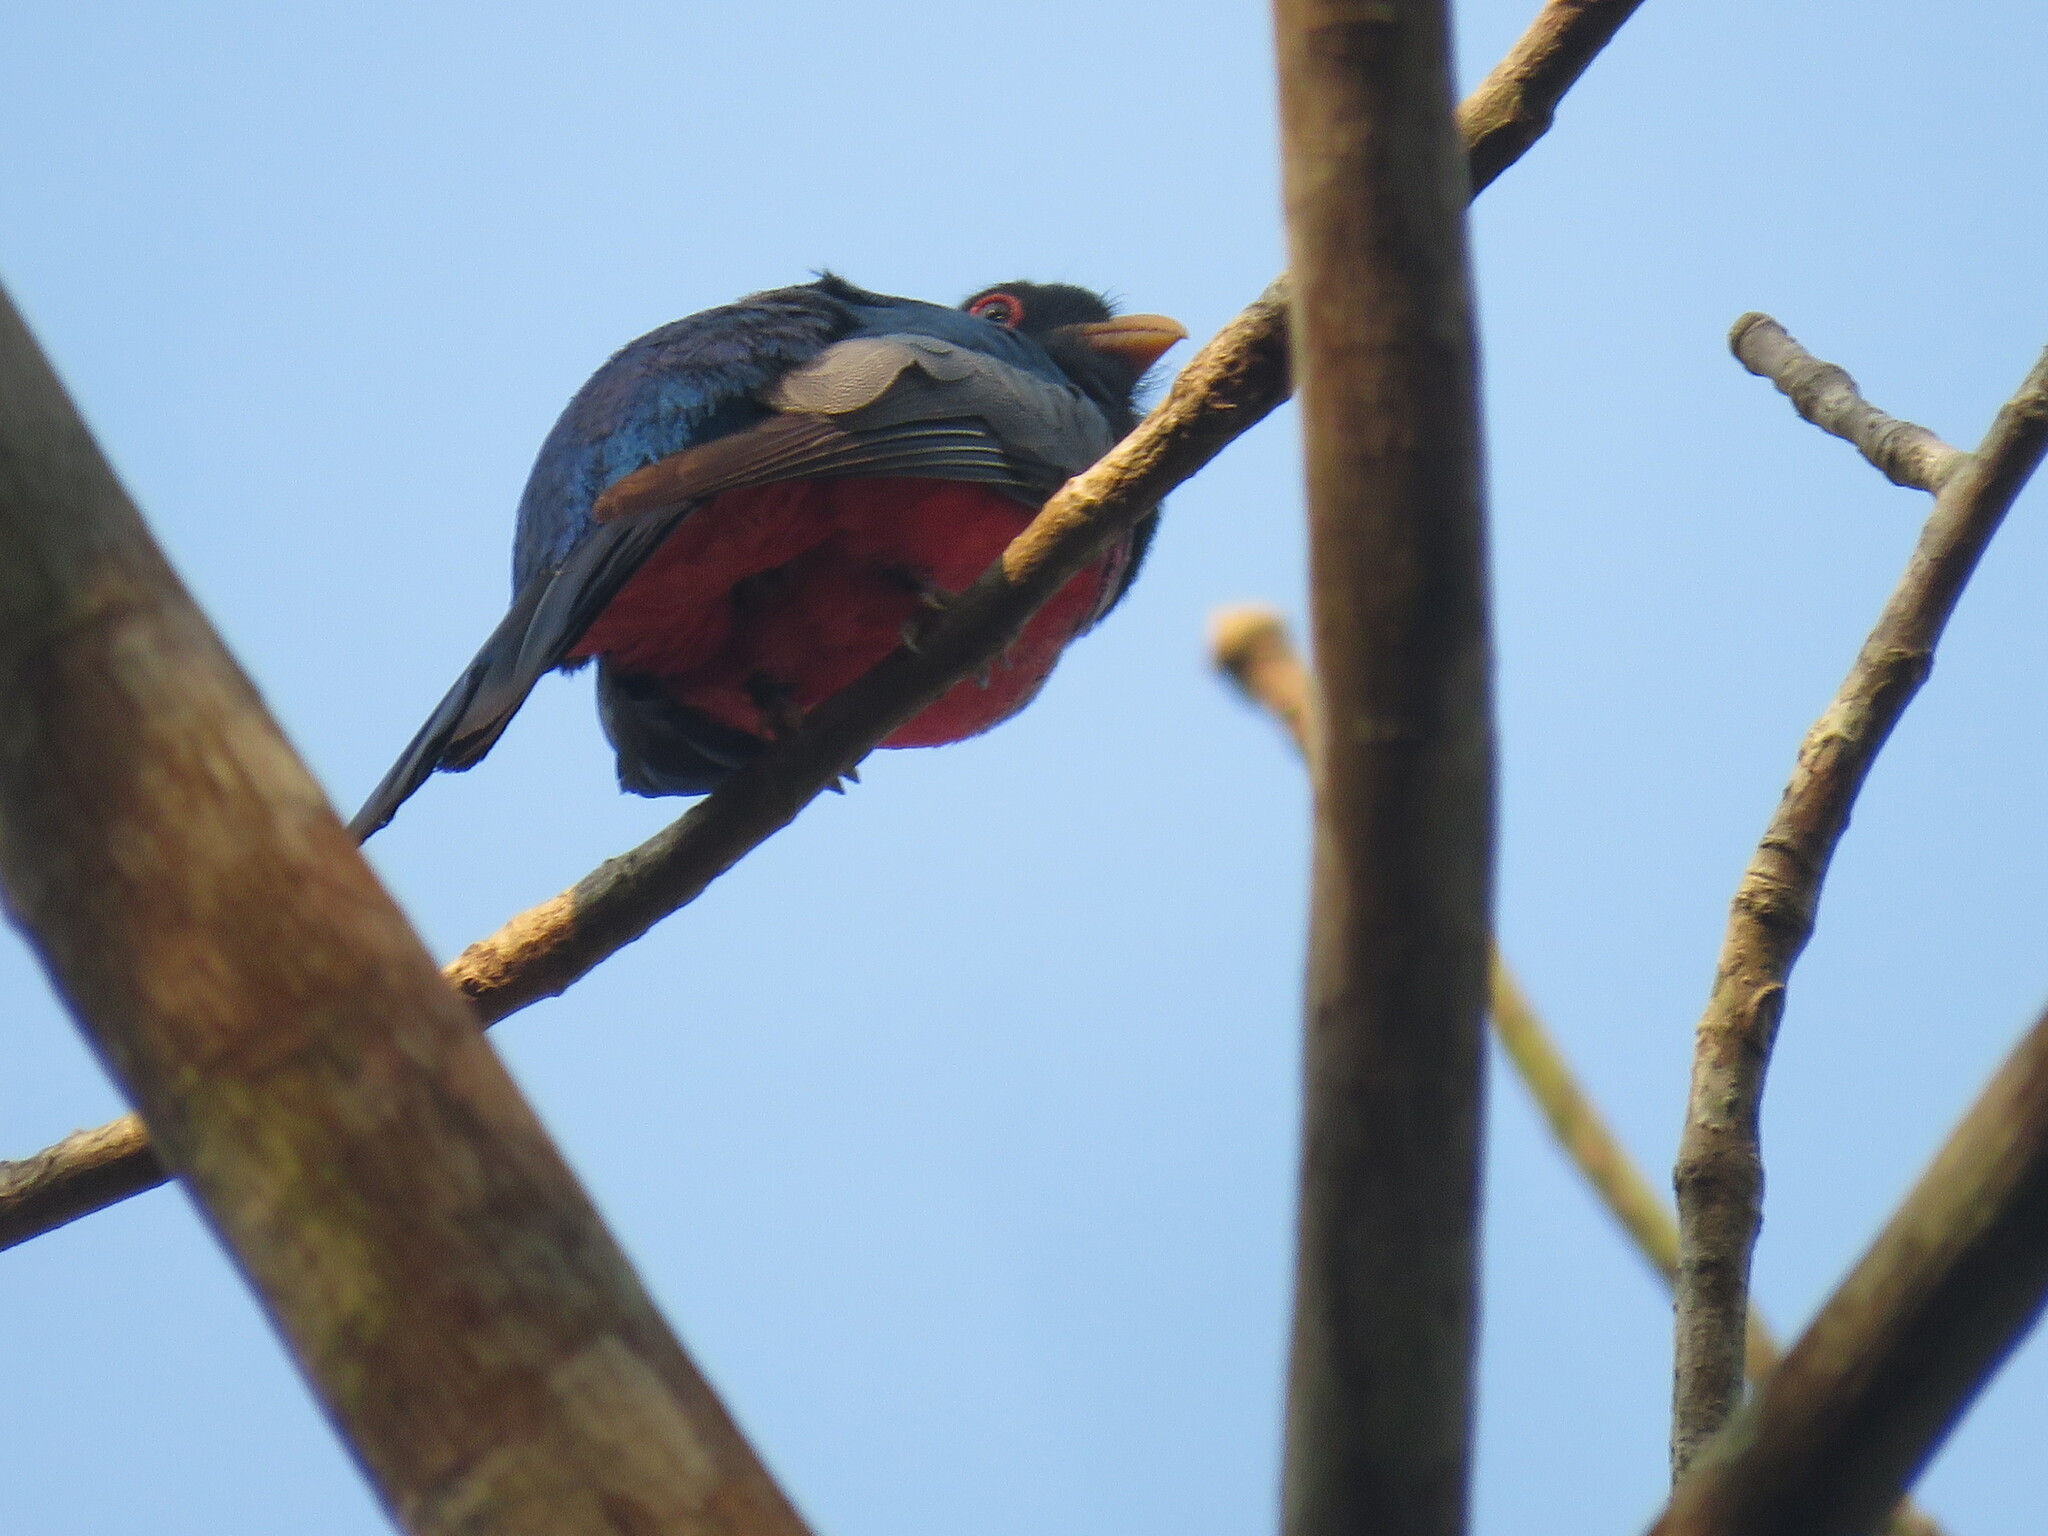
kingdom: Animalia
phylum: Chordata
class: Aves
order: Trogoniformes
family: Trogonidae
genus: Trogon
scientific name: Trogon melanurus
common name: Black-tailed trogon
